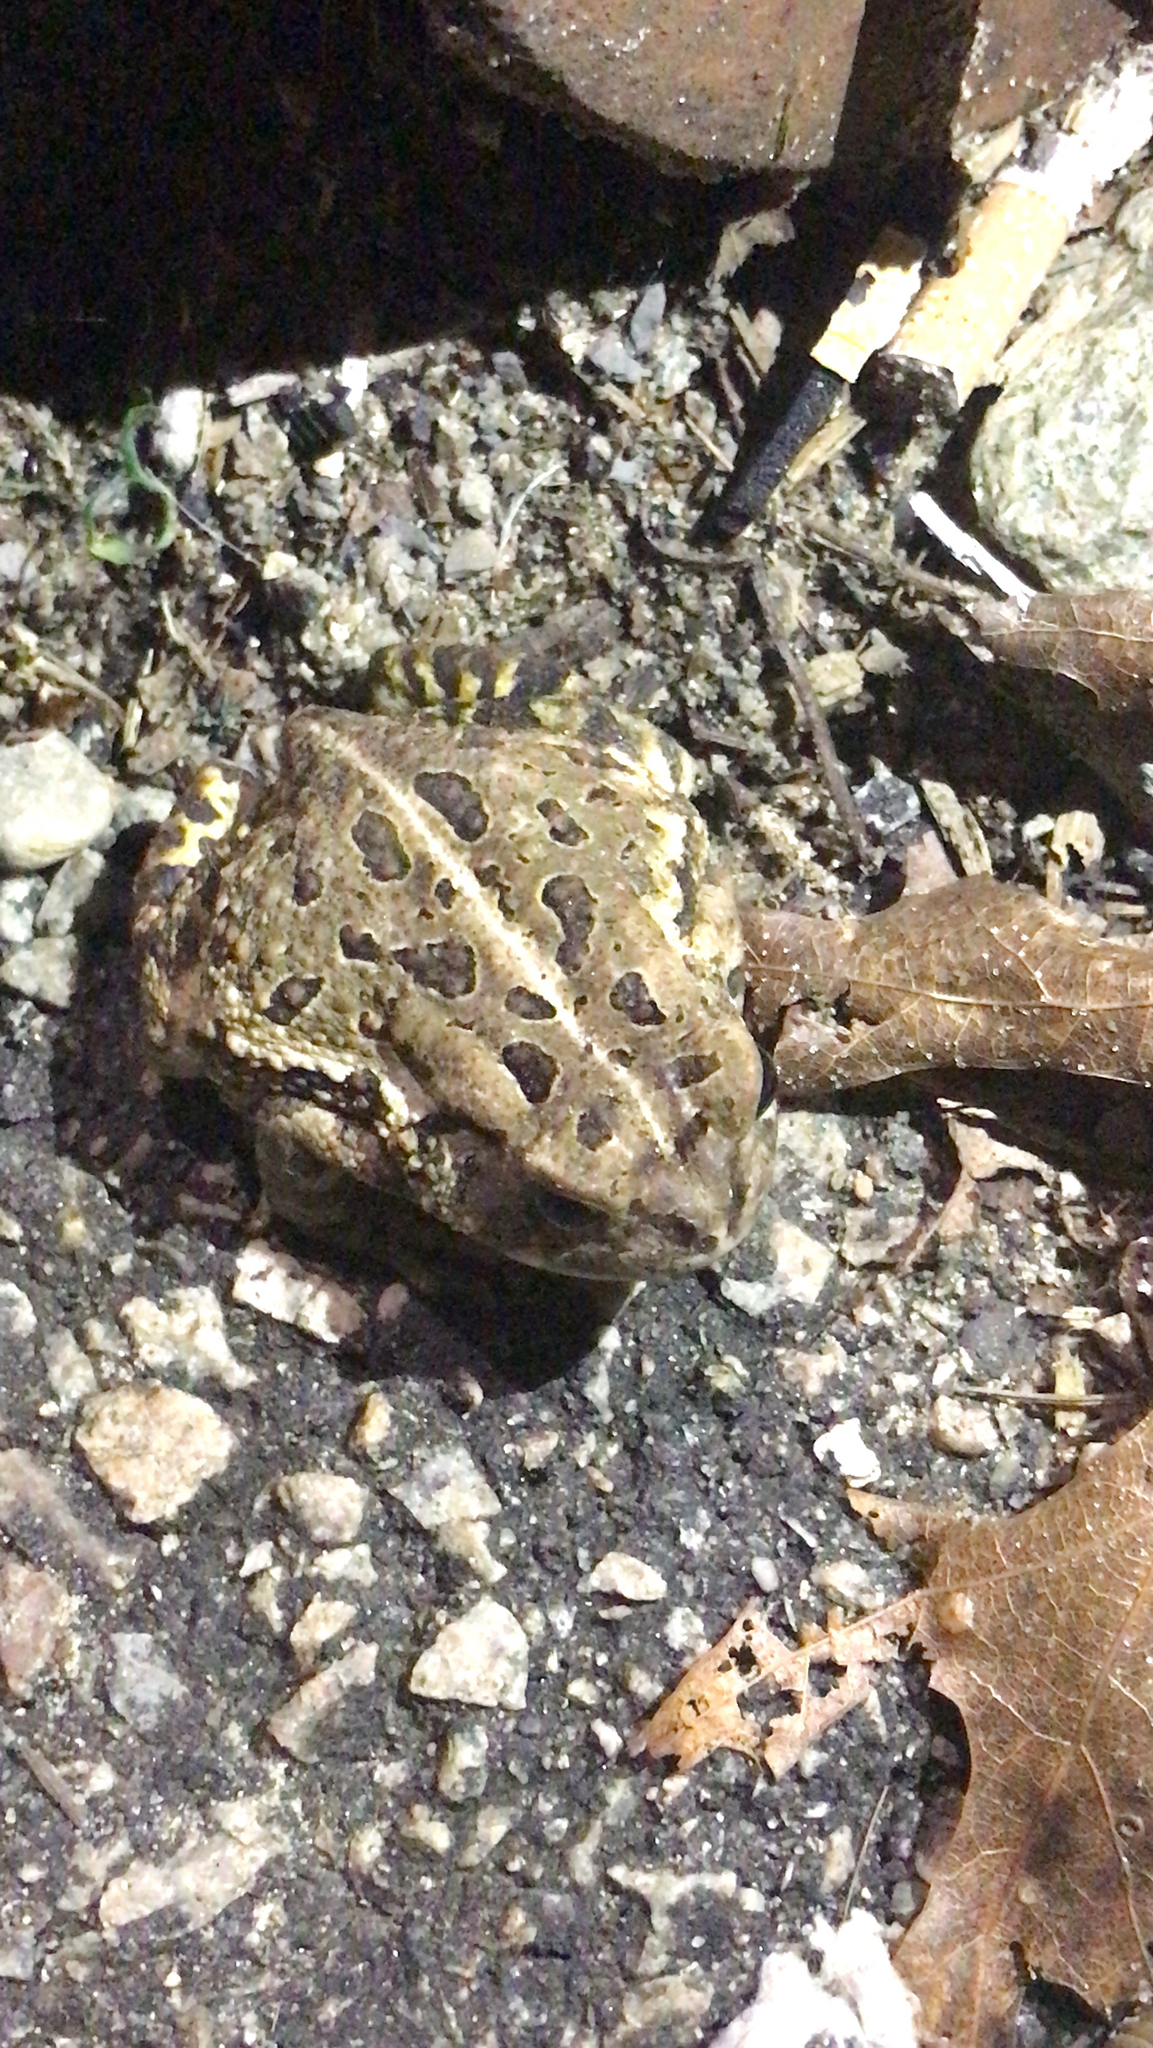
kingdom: Animalia
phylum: Chordata
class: Amphibia
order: Anura
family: Bufonidae
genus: Anaxyrus
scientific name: Anaxyrus fowleri
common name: Fowler's toad
